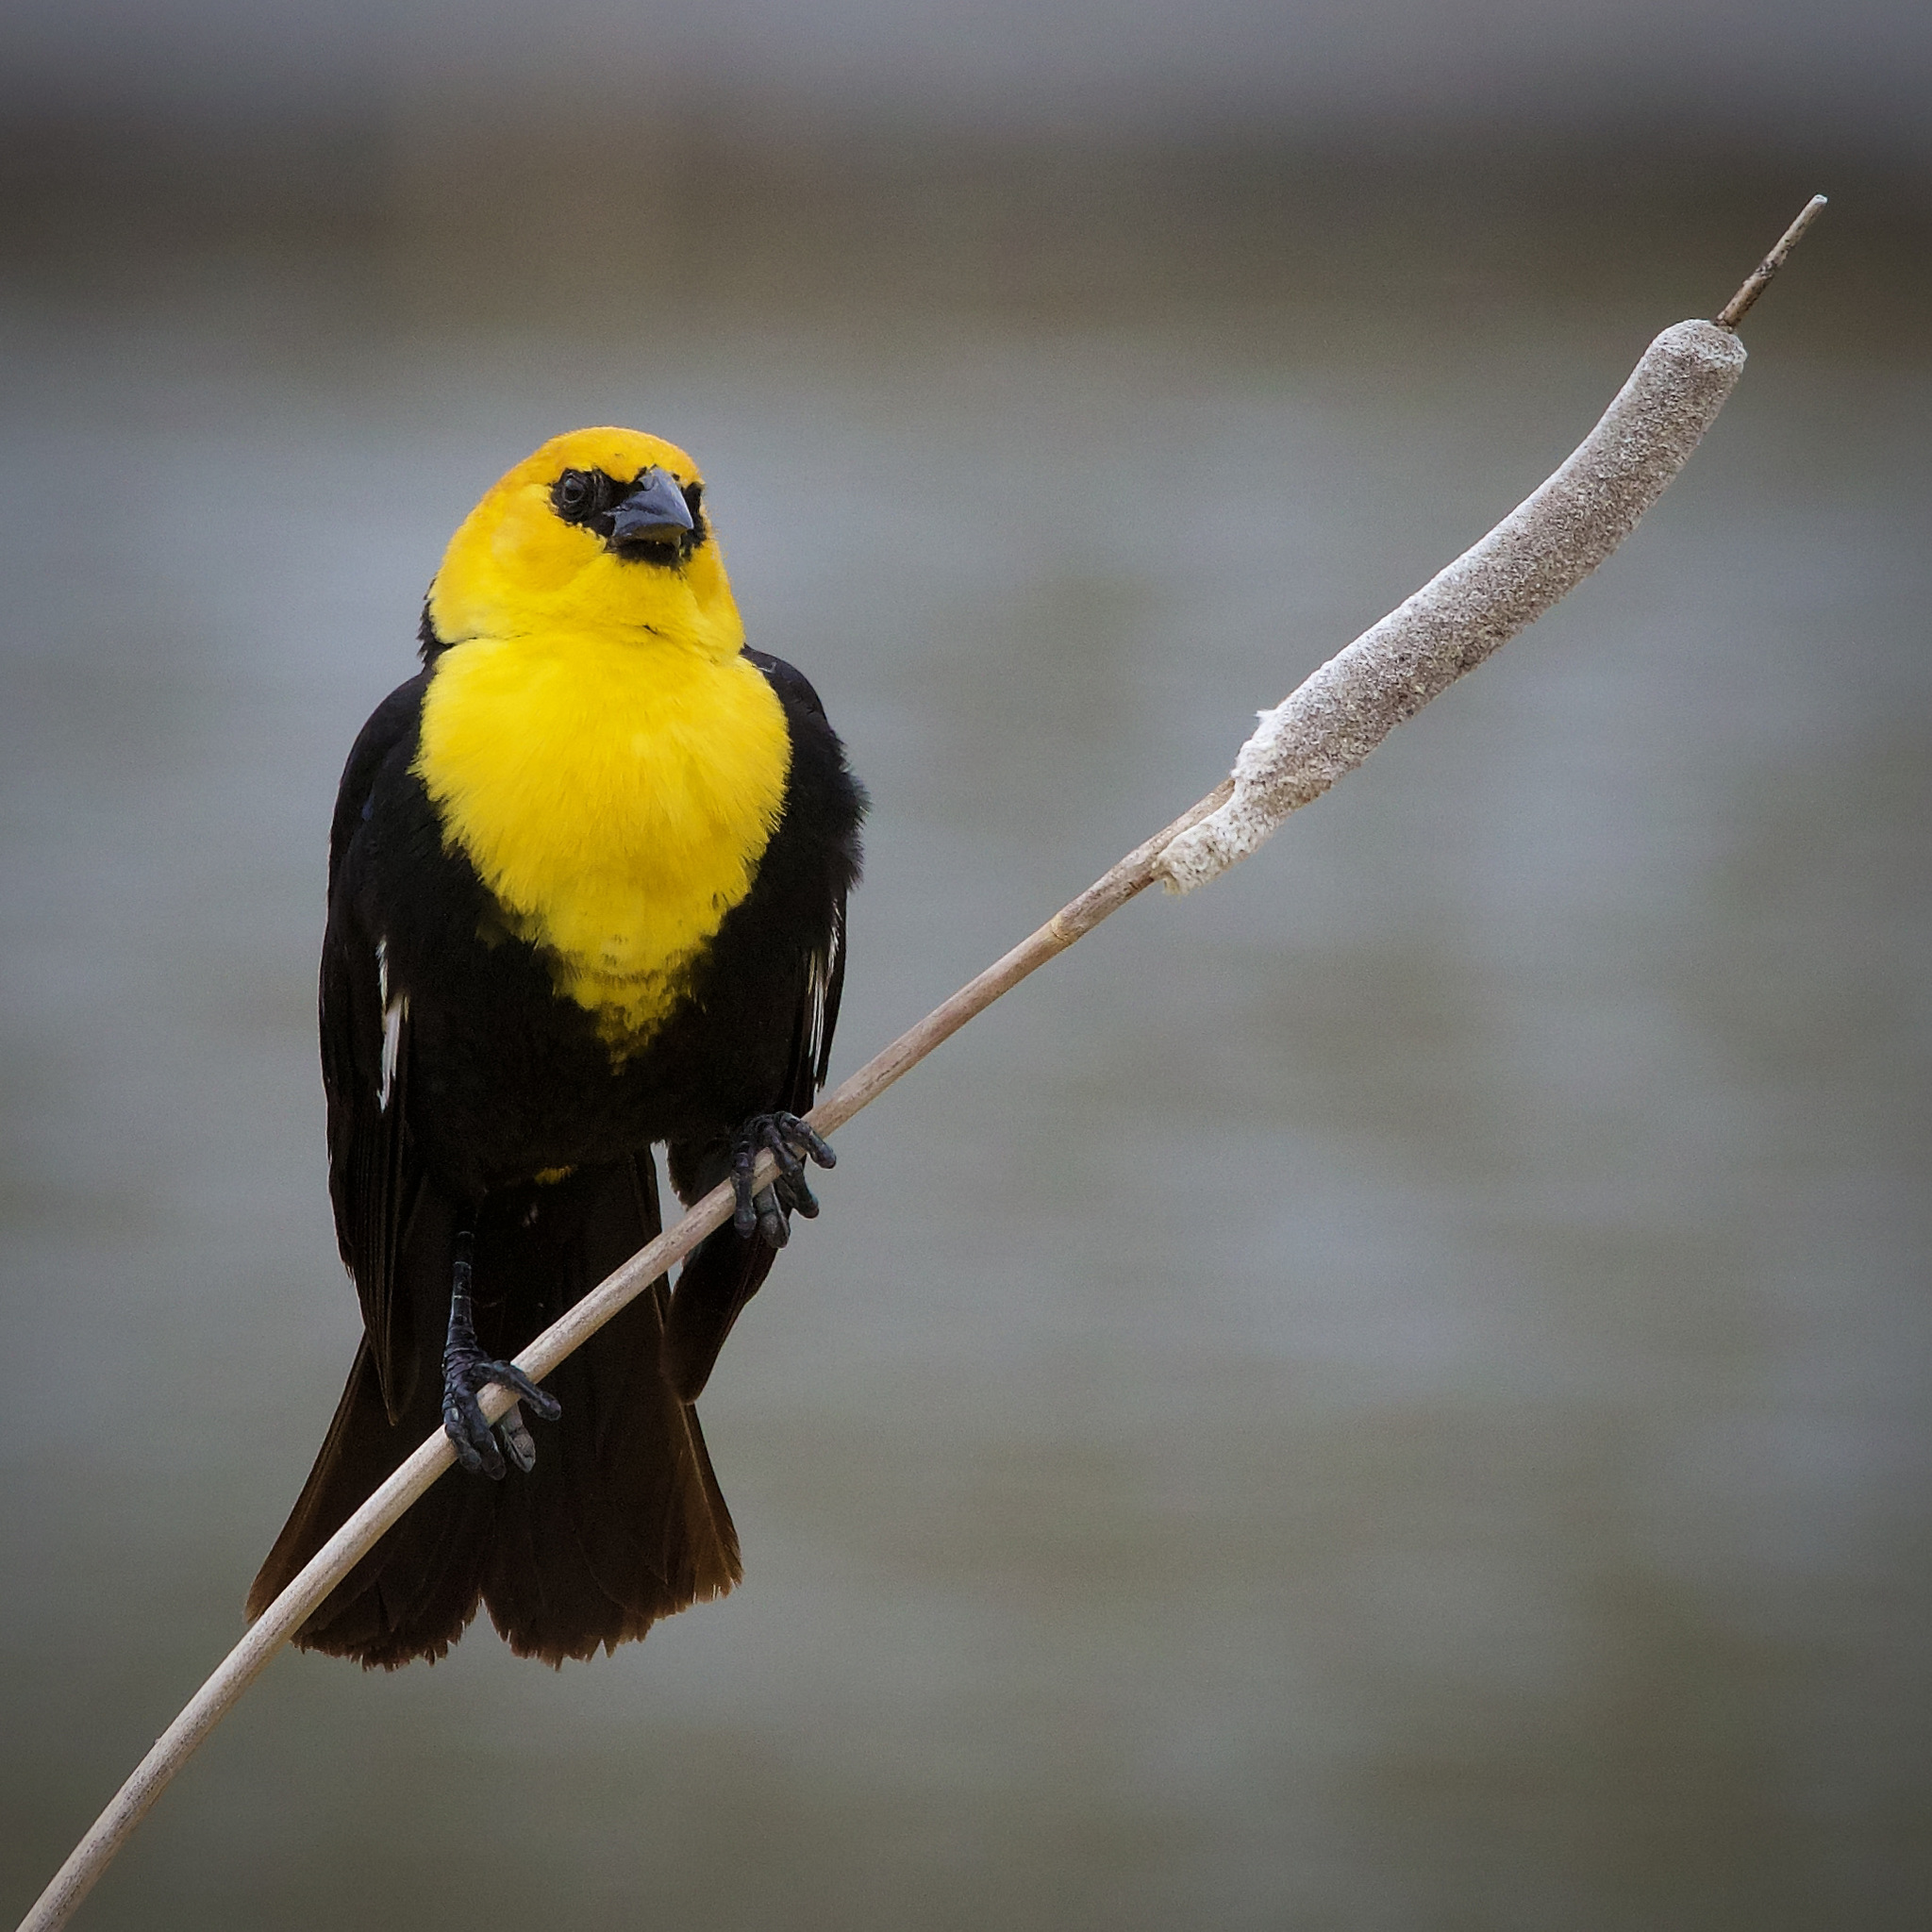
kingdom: Animalia
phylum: Chordata
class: Aves
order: Passeriformes
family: Icteridae
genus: Xanthocephalus
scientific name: Xanthocephalus xanthocephalus
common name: Yellow-headed blackbird
